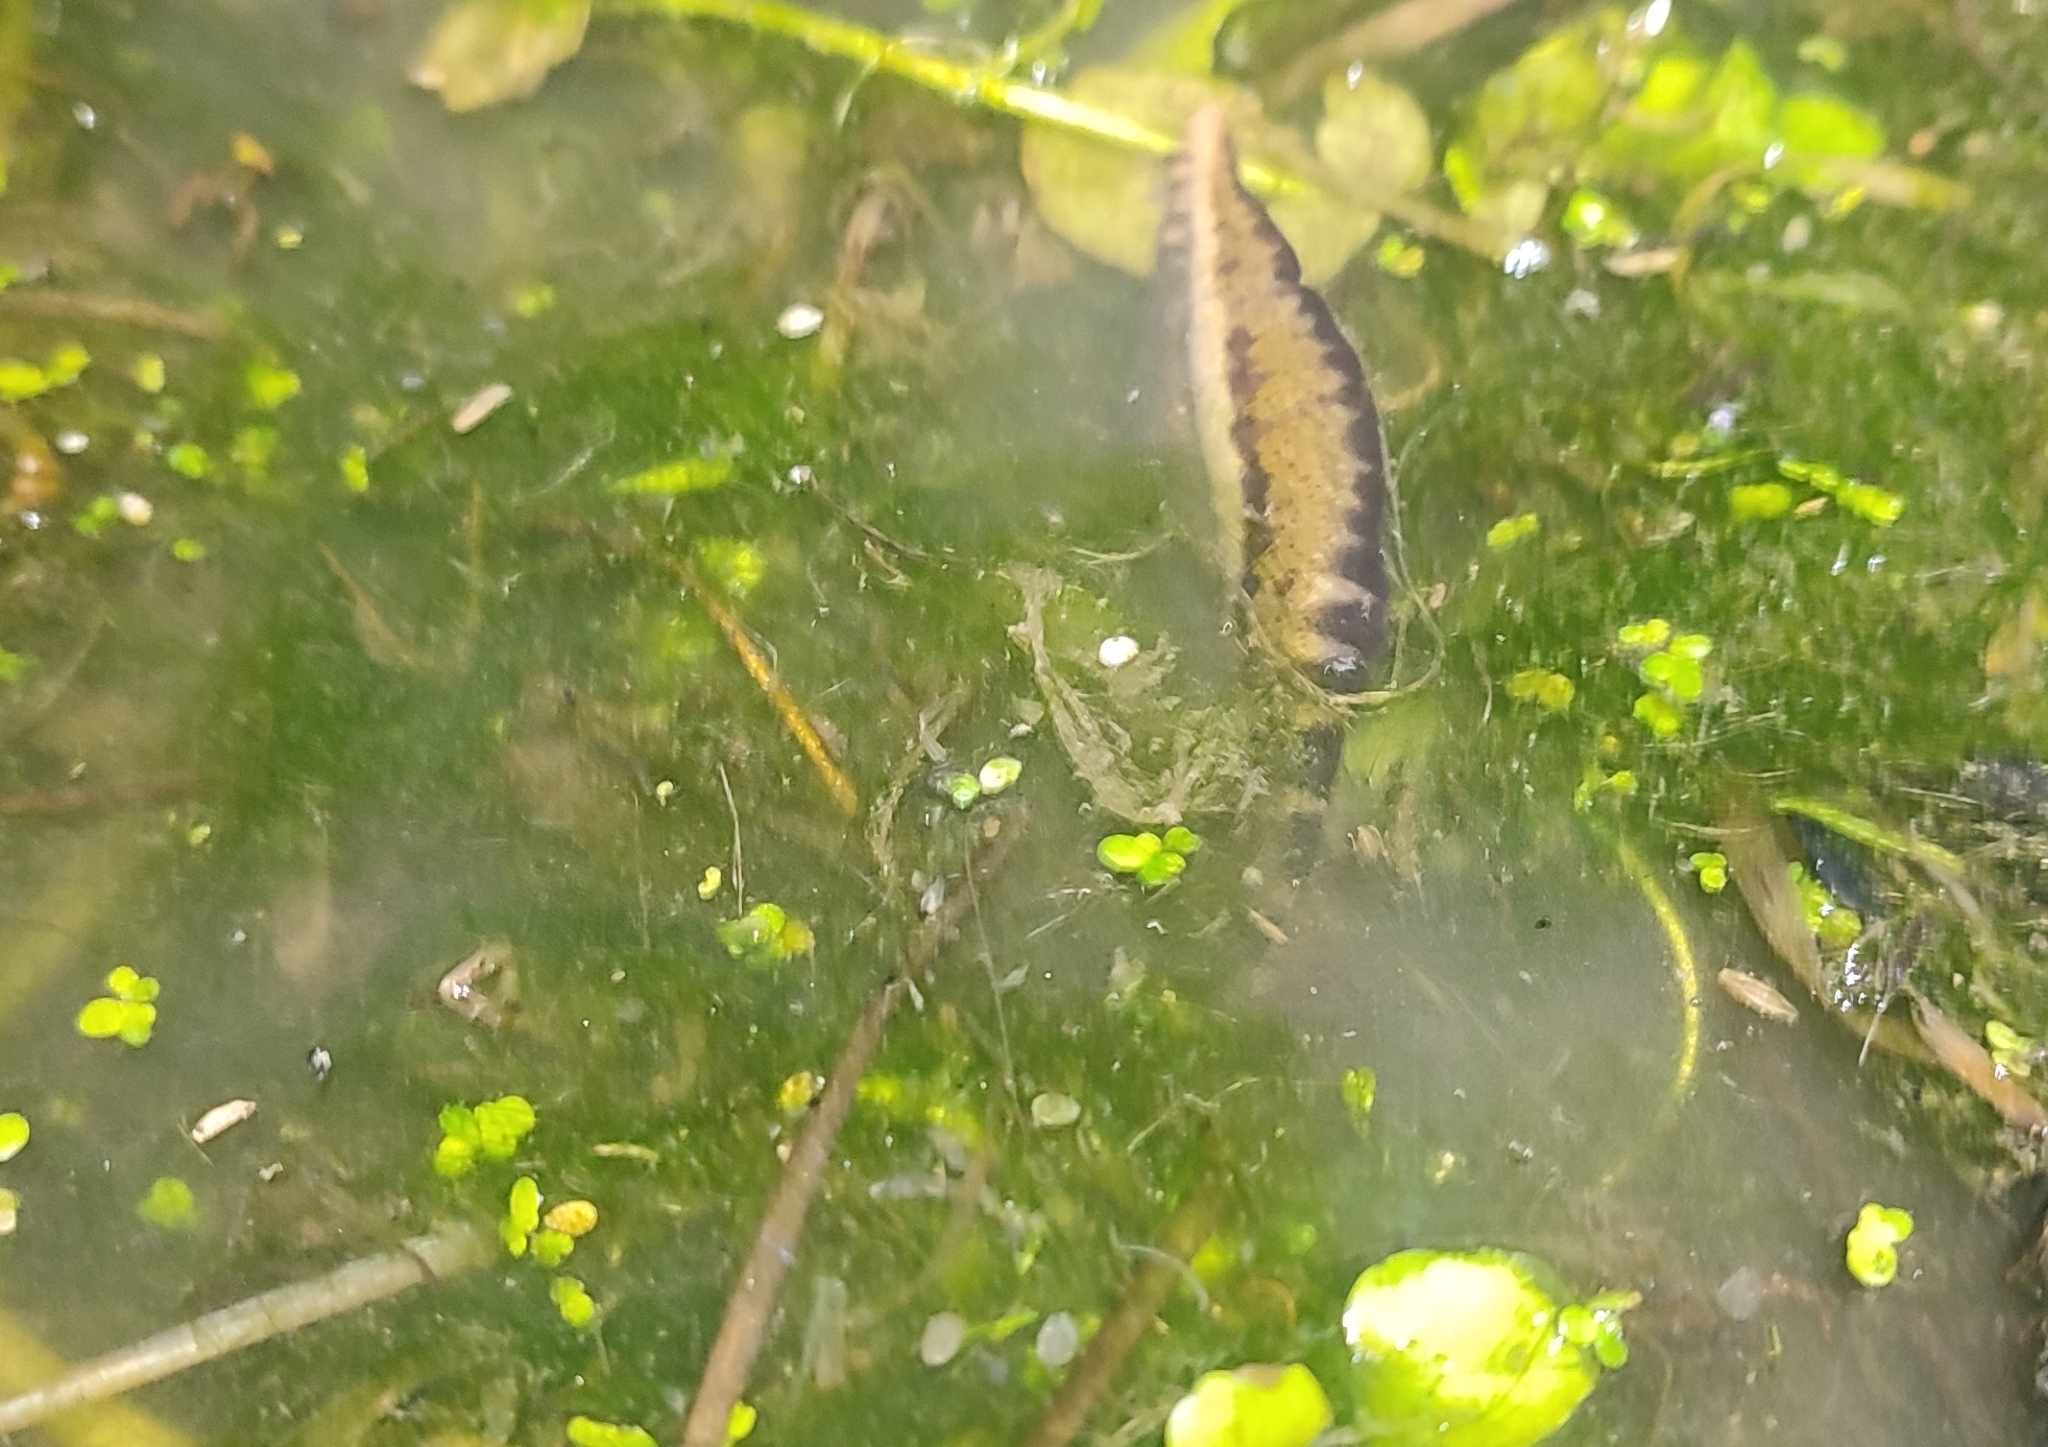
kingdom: Animalia
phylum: Chordata
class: Amphibia
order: Caudata
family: Salamandridae
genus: Triturus
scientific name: Triturus marmoratus
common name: Marbled newt
